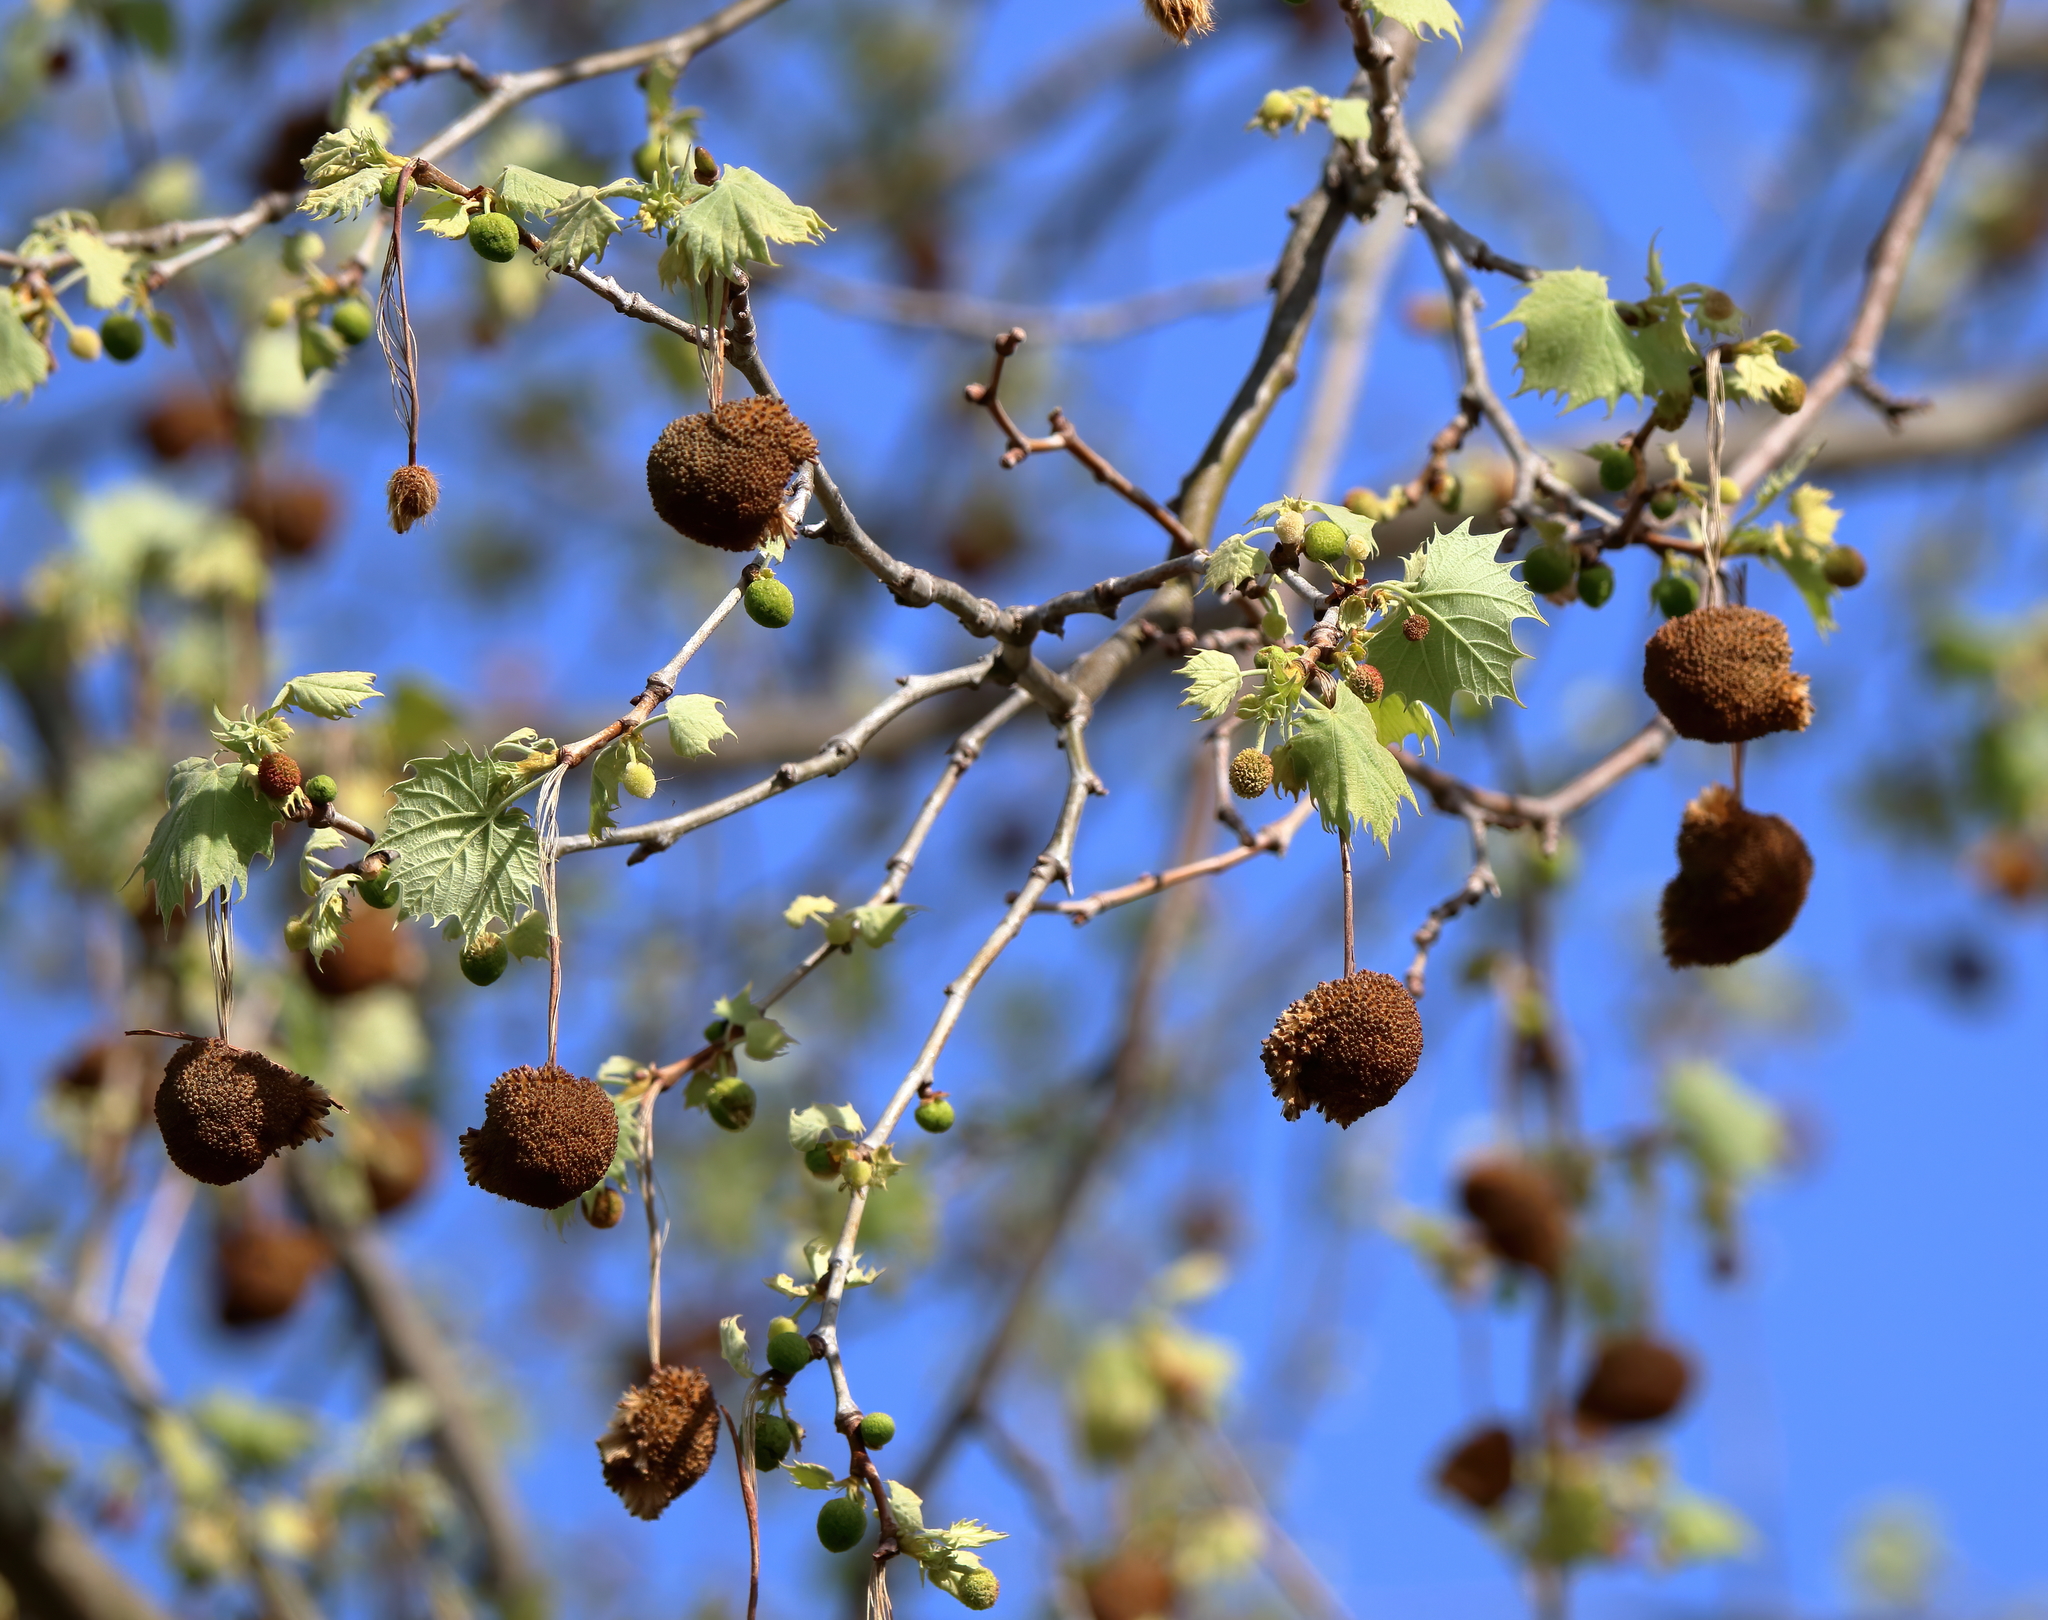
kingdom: Plantae
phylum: Tracheophyta
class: Magnoliopsida
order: Proteales
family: Platanaceae
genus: Platanus
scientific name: Platanus occidentalis
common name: American sycamore
